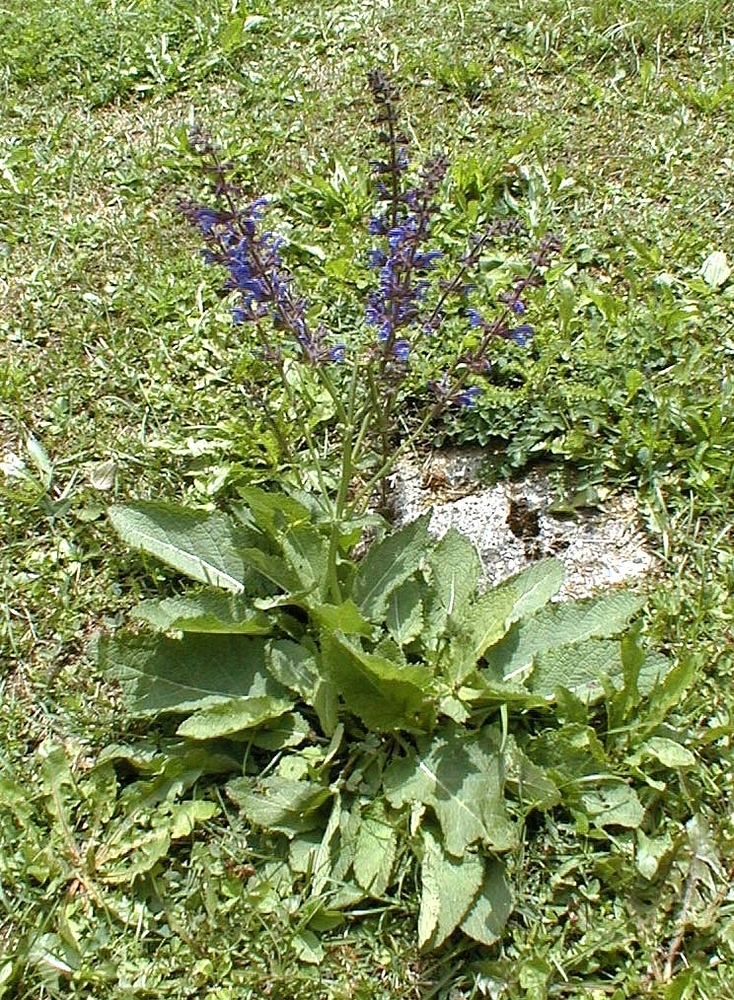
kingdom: Plantae
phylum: Tracheophyta
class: Magnoliopsida
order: Lamiales
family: Lamiaceae
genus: Salvia
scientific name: Salvia pratensis
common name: Meadow sage
